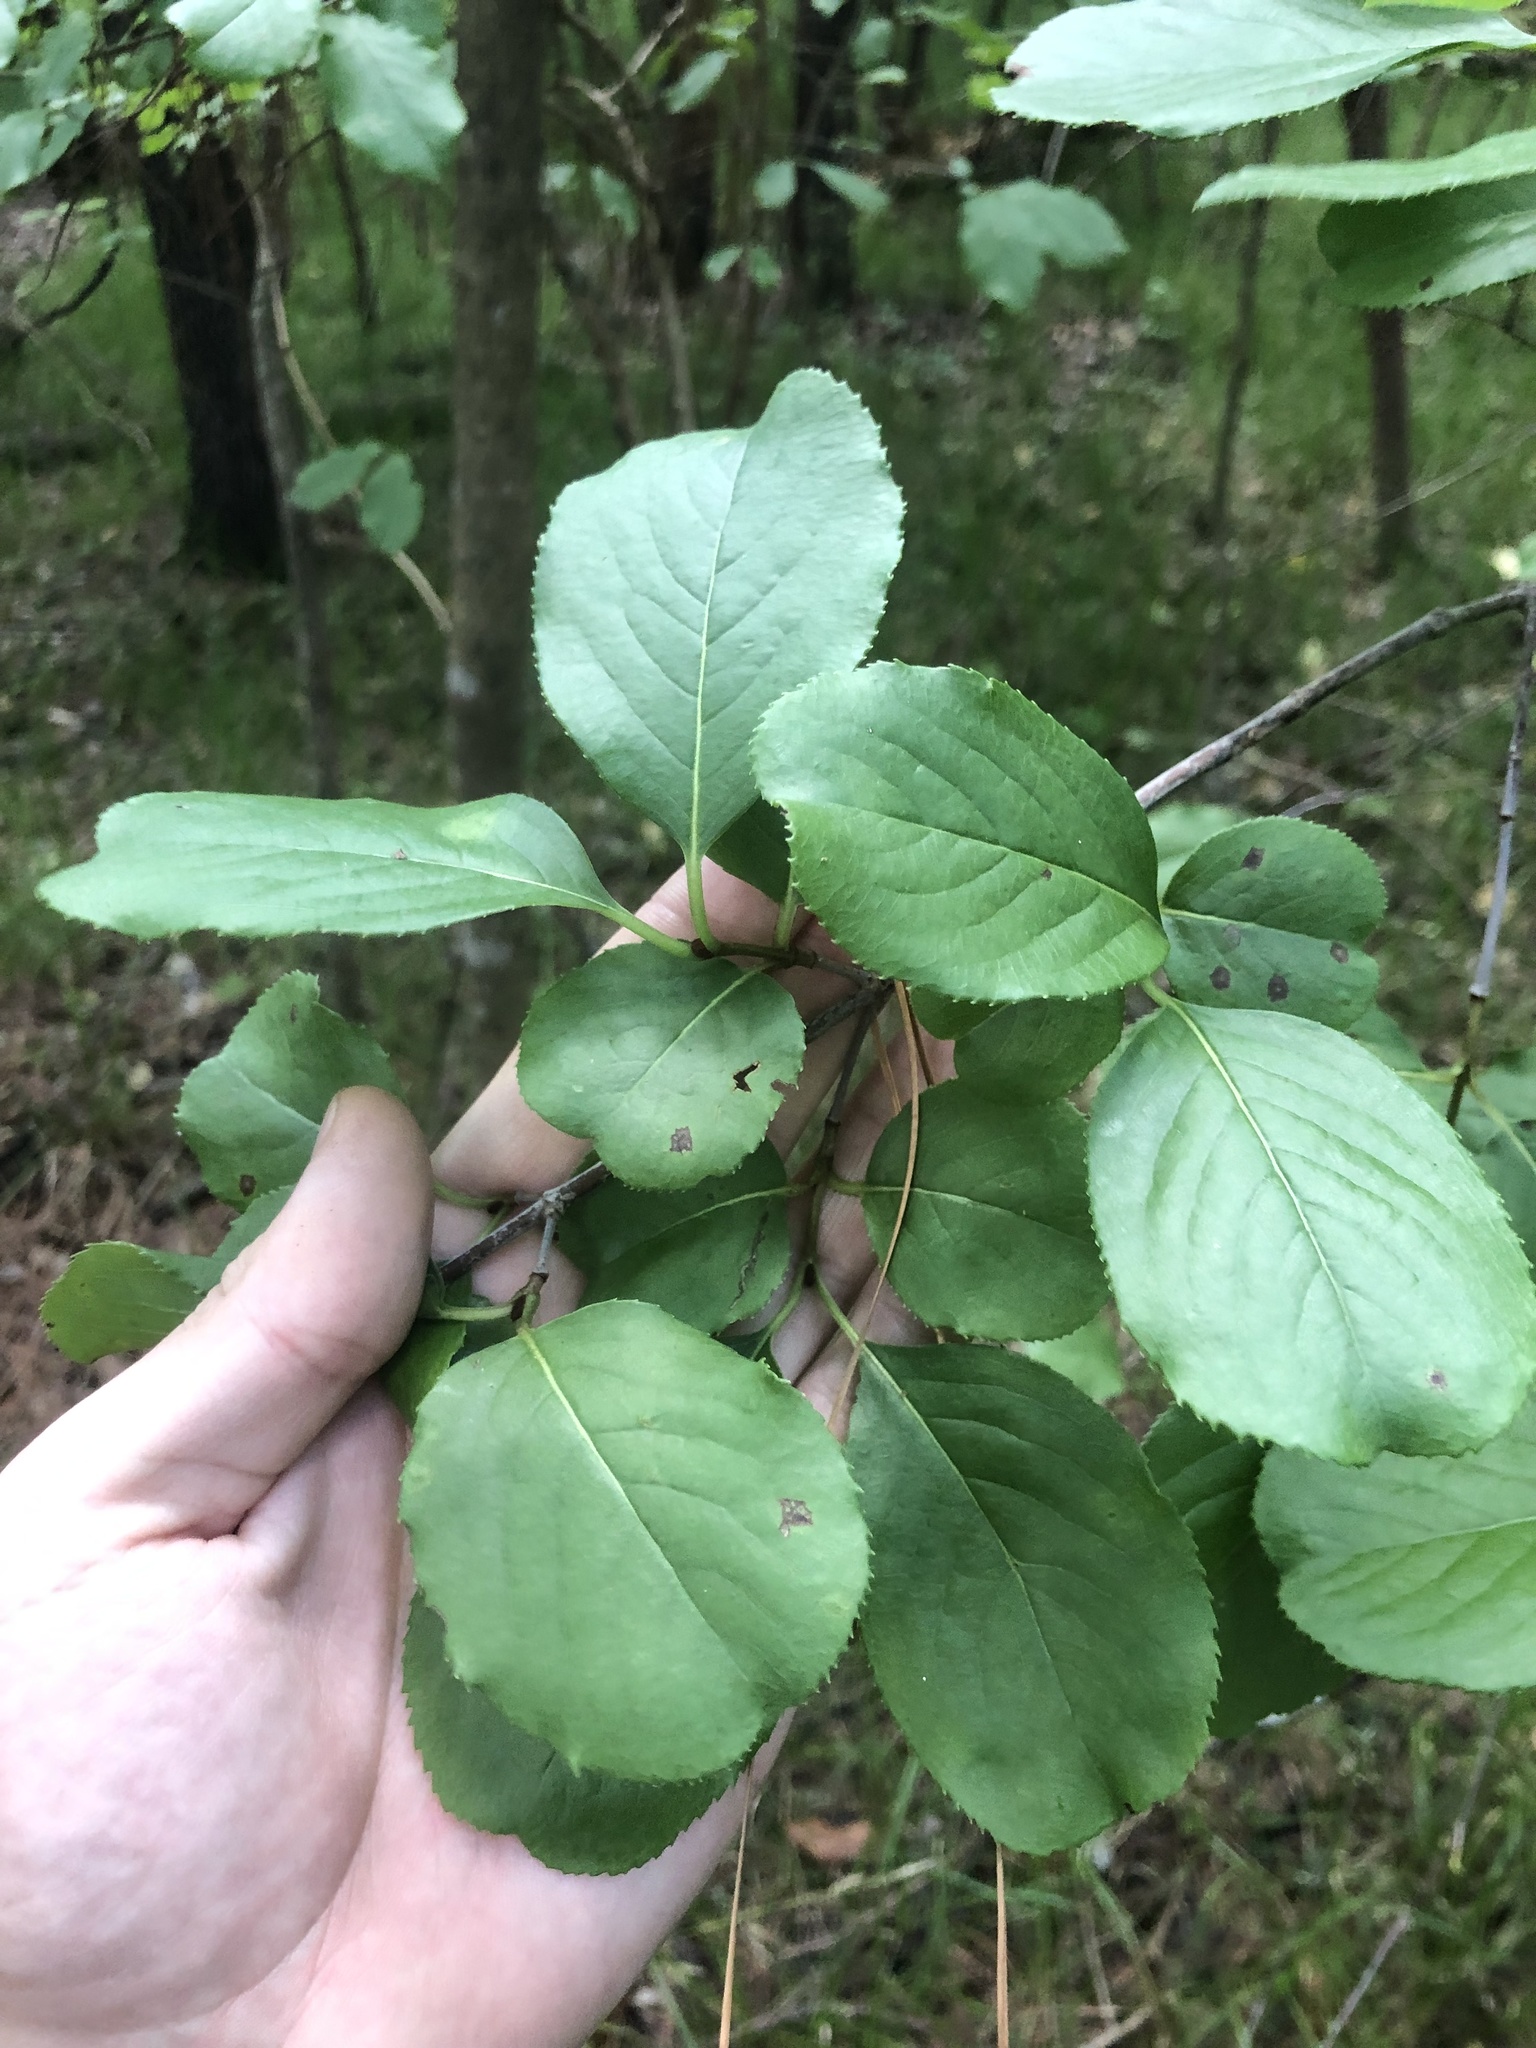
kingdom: Plantae
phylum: Tracheophyta
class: Magnoliopsida
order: Dipsacales
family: Viburnaceae
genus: Viburnum
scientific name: Viburnum rufidulum
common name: Blue haw
